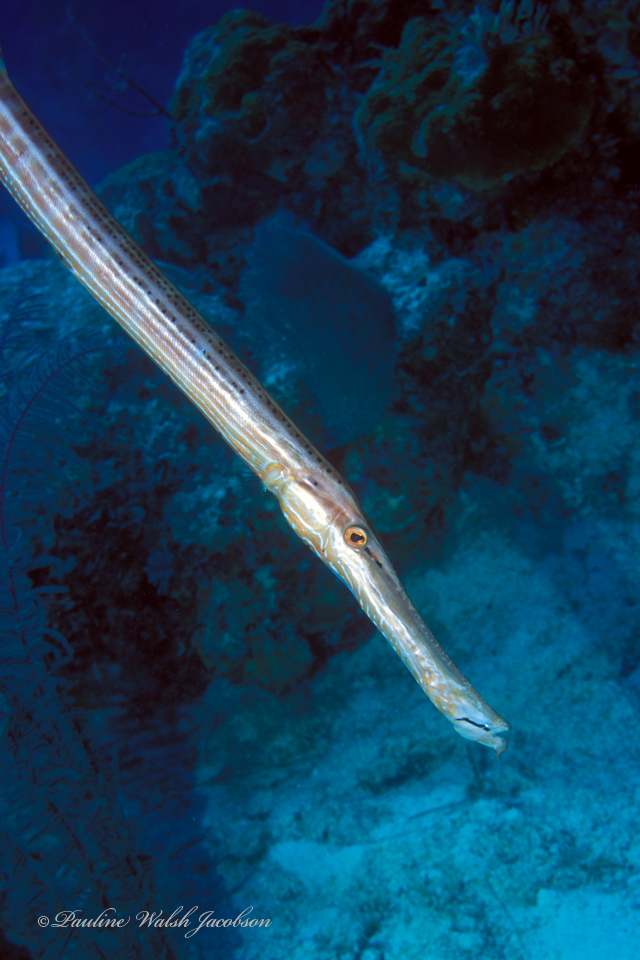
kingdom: Animalia
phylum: Chordata
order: Syngnathiformes
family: Aulostomidae
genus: Aulostomus
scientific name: Aulostomus maculatus
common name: West atlantic trumpetfish
